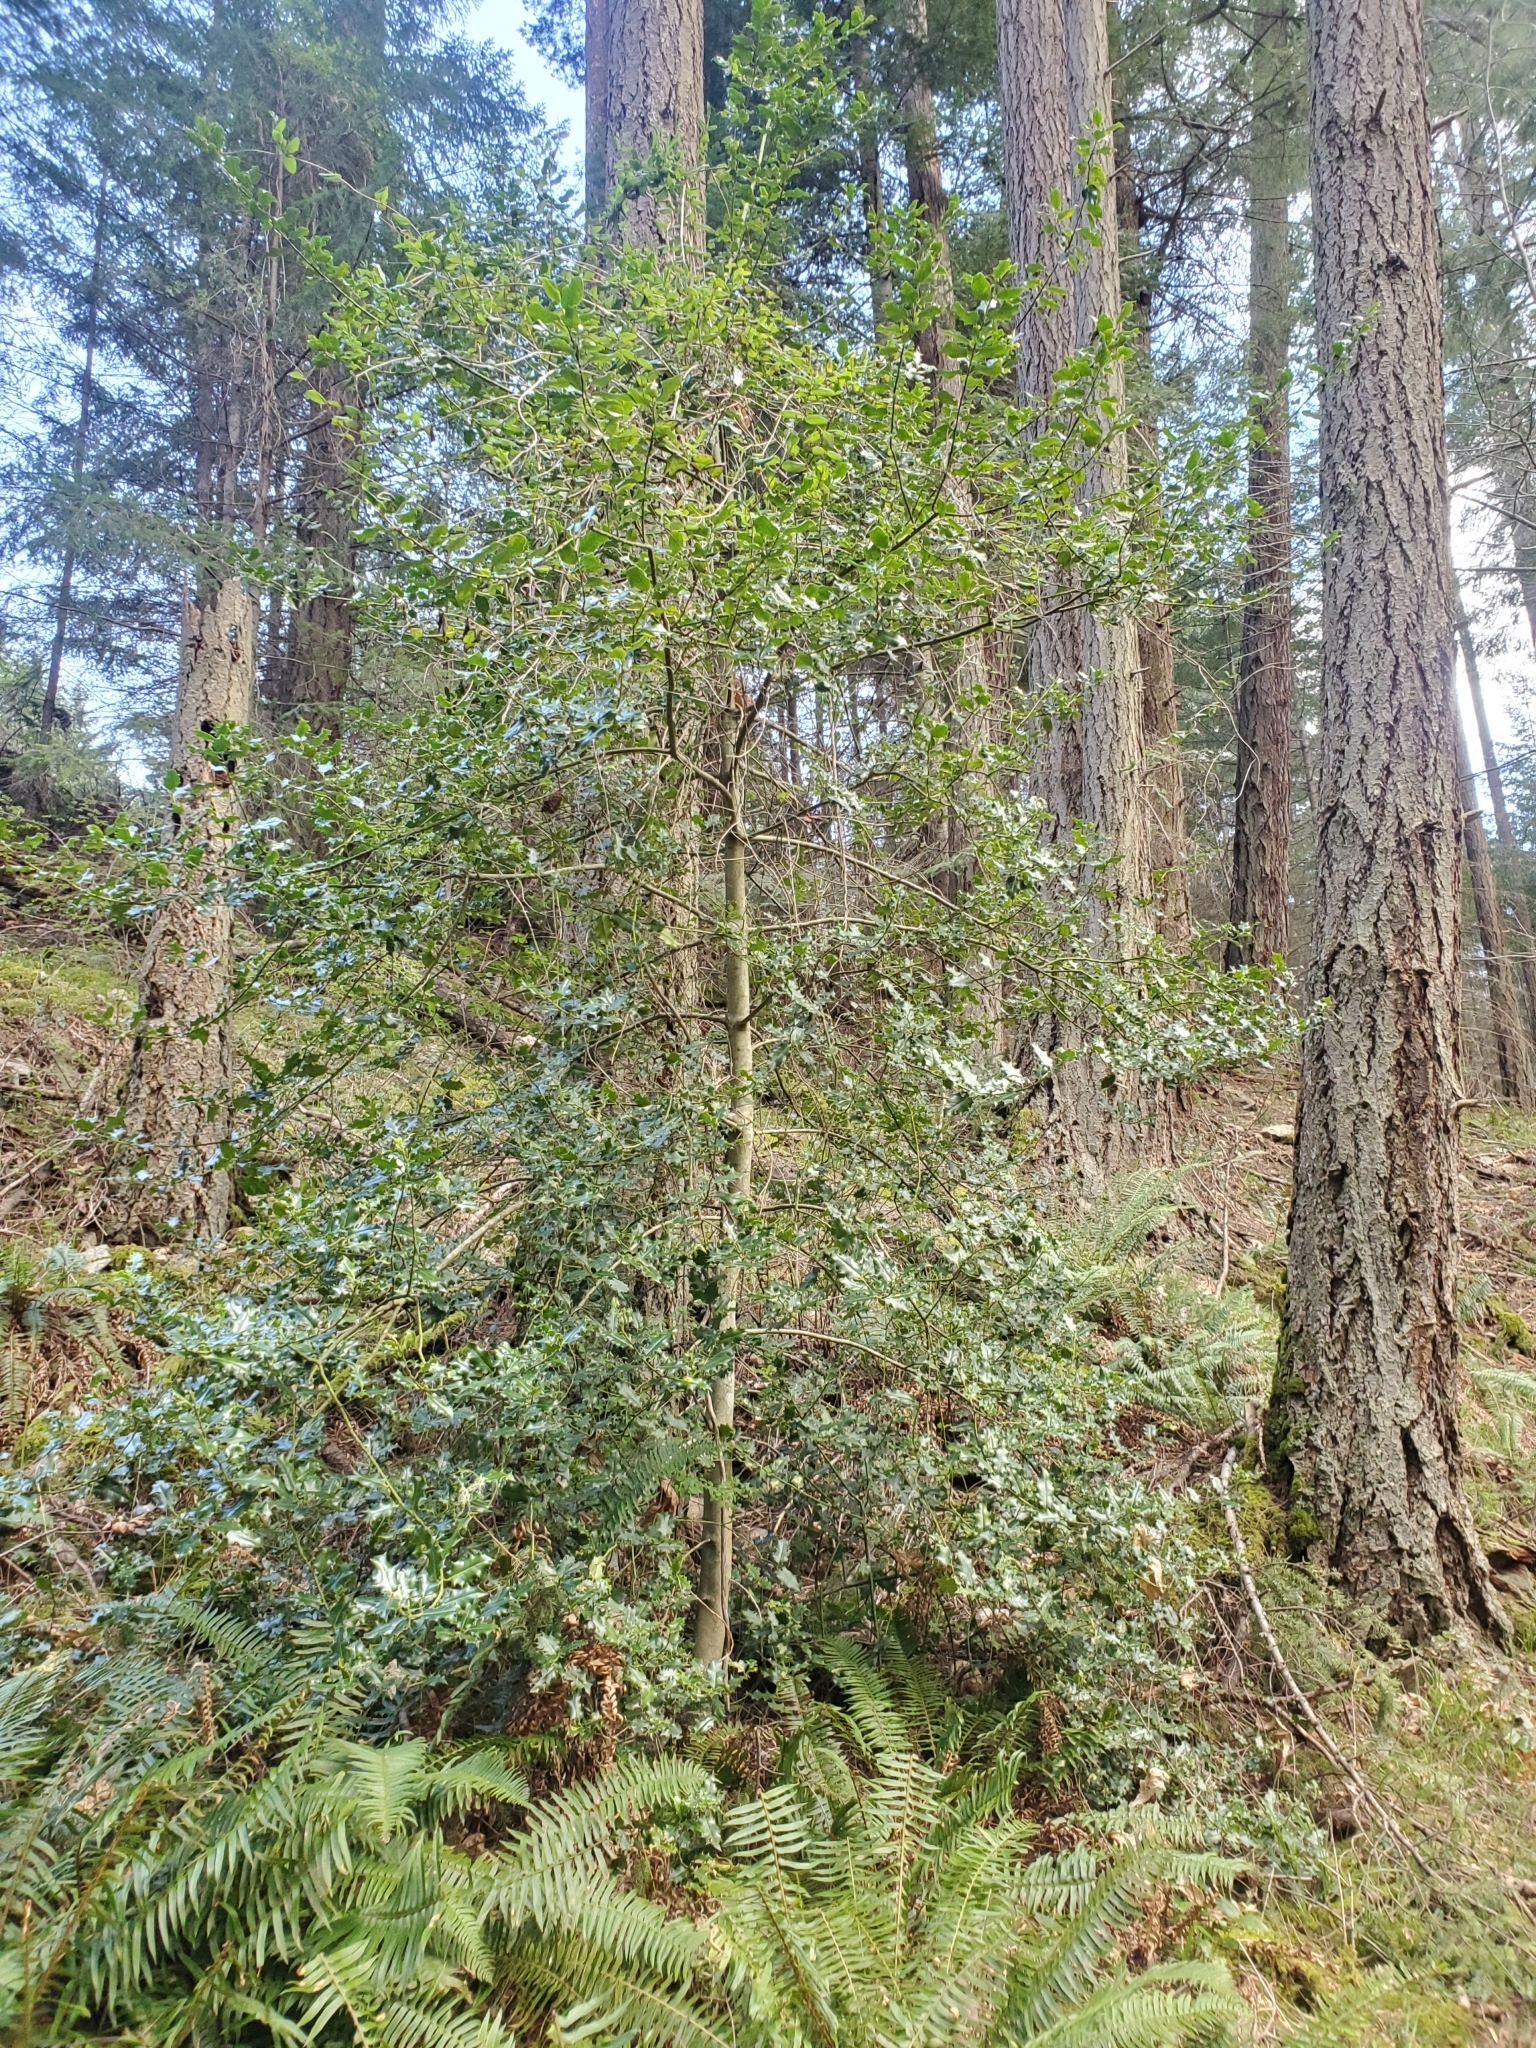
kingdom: Plantae
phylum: Tracheophyta
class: Magnoliopsida
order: Aquifoliales
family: Aquifoliaceae
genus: Ilex
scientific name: Ilex aquifolium
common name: English holly
